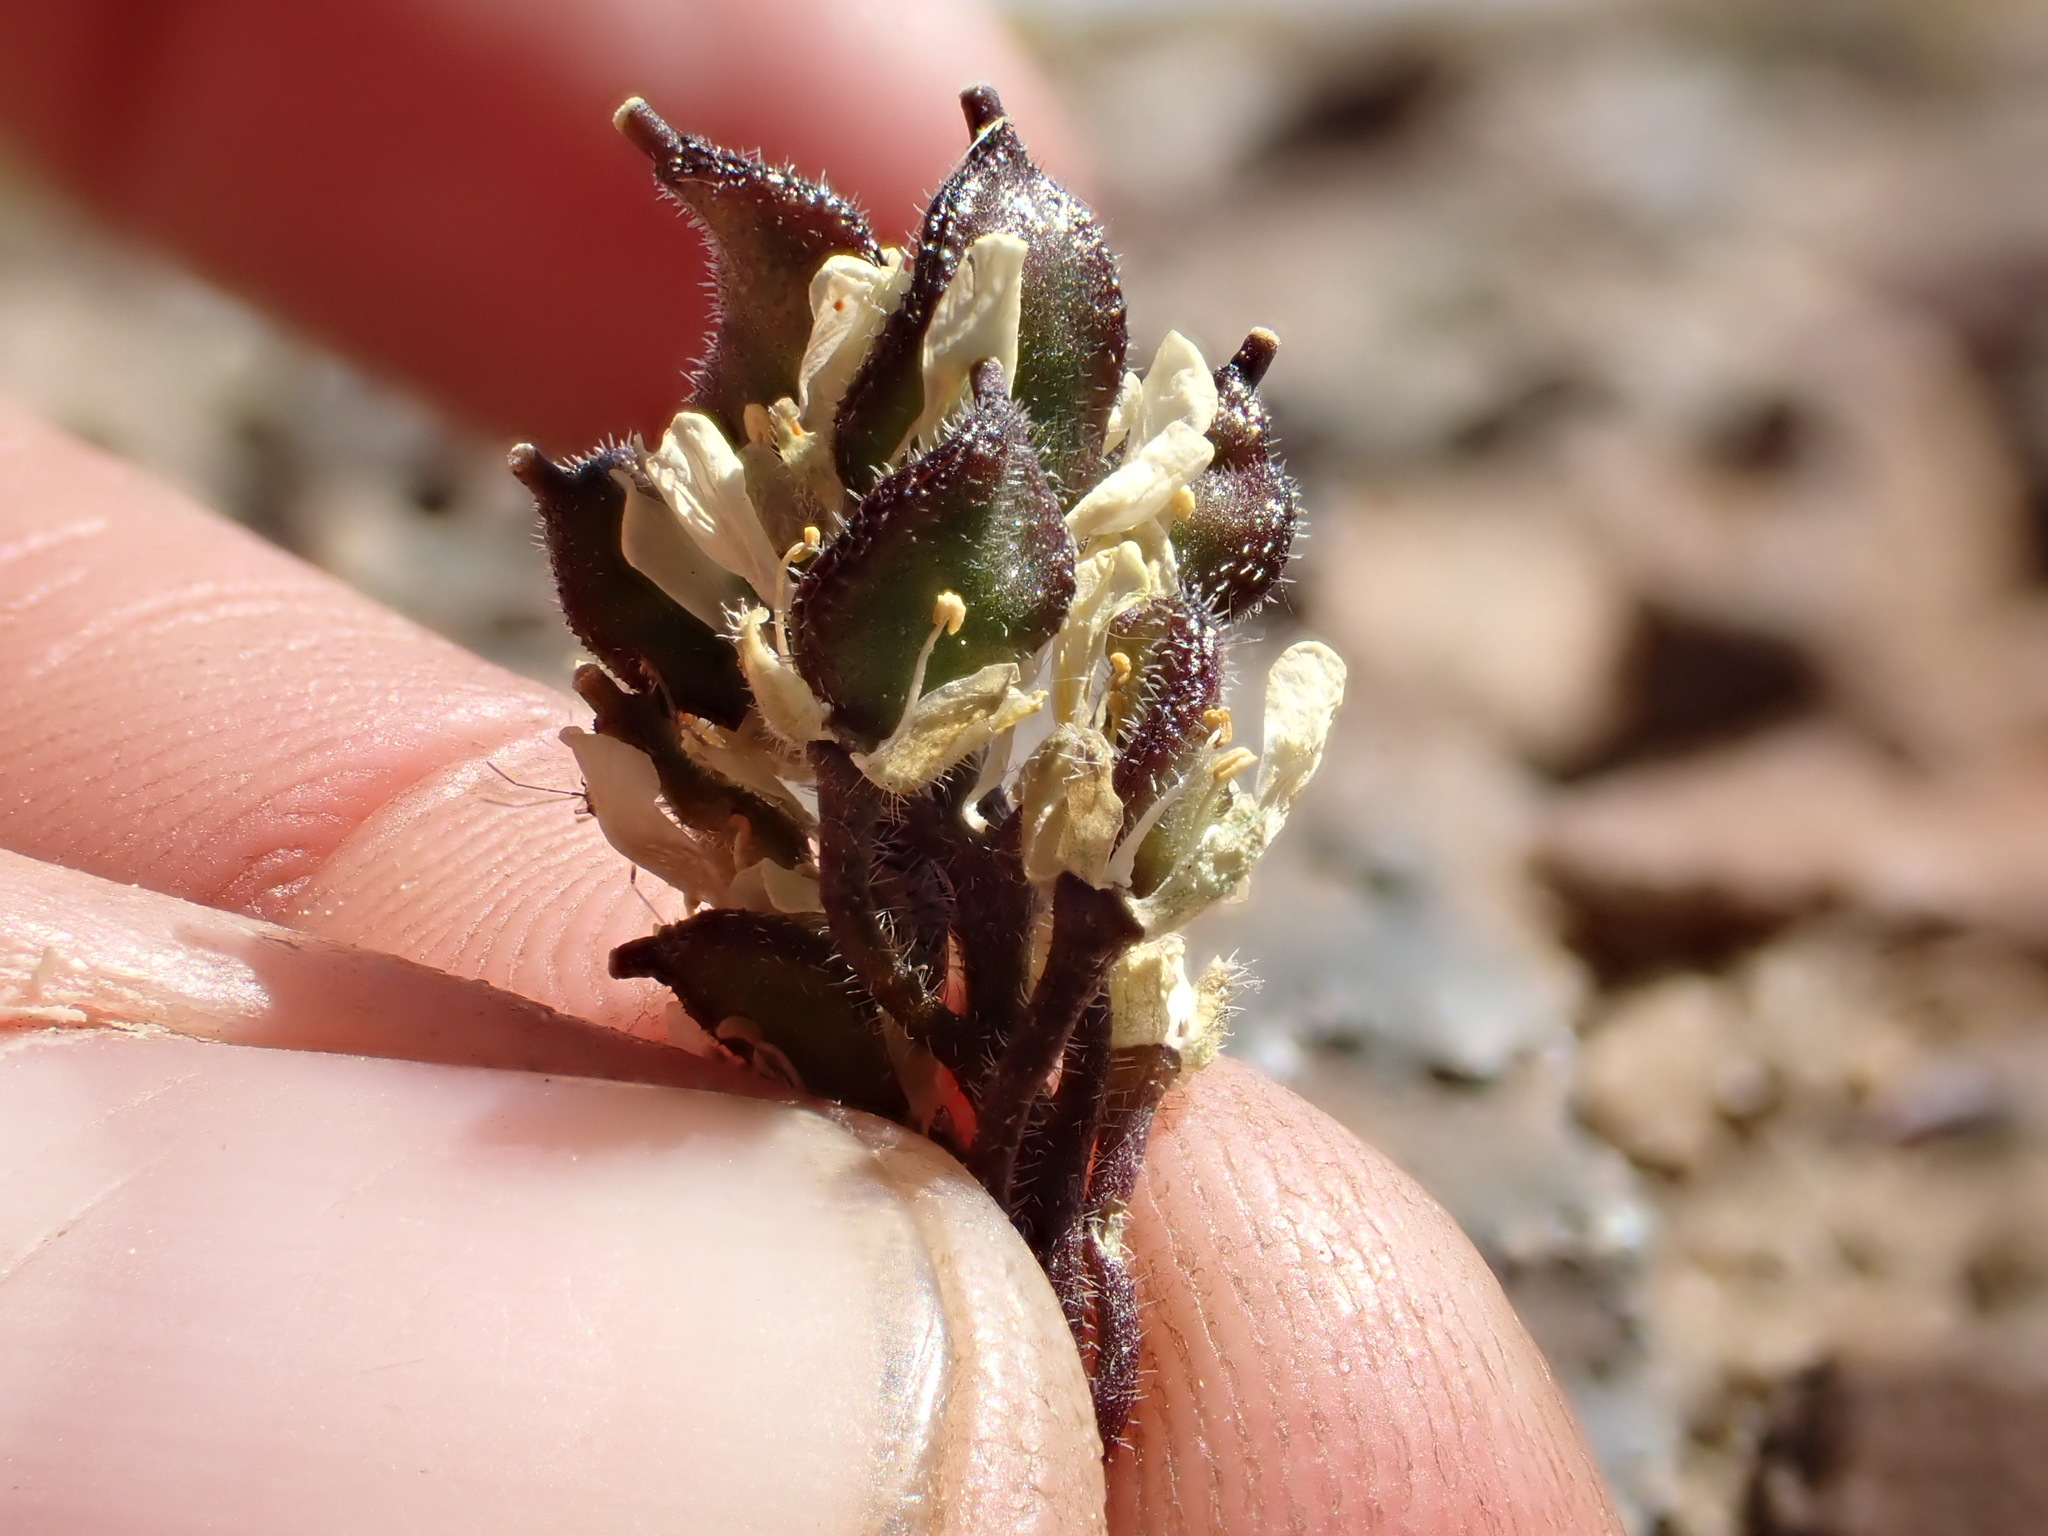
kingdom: Plantae
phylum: Tracheophyta
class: Magnoliopsida
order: Brassicales
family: Brassicaceae
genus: Draba
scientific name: Draba lemmonii
